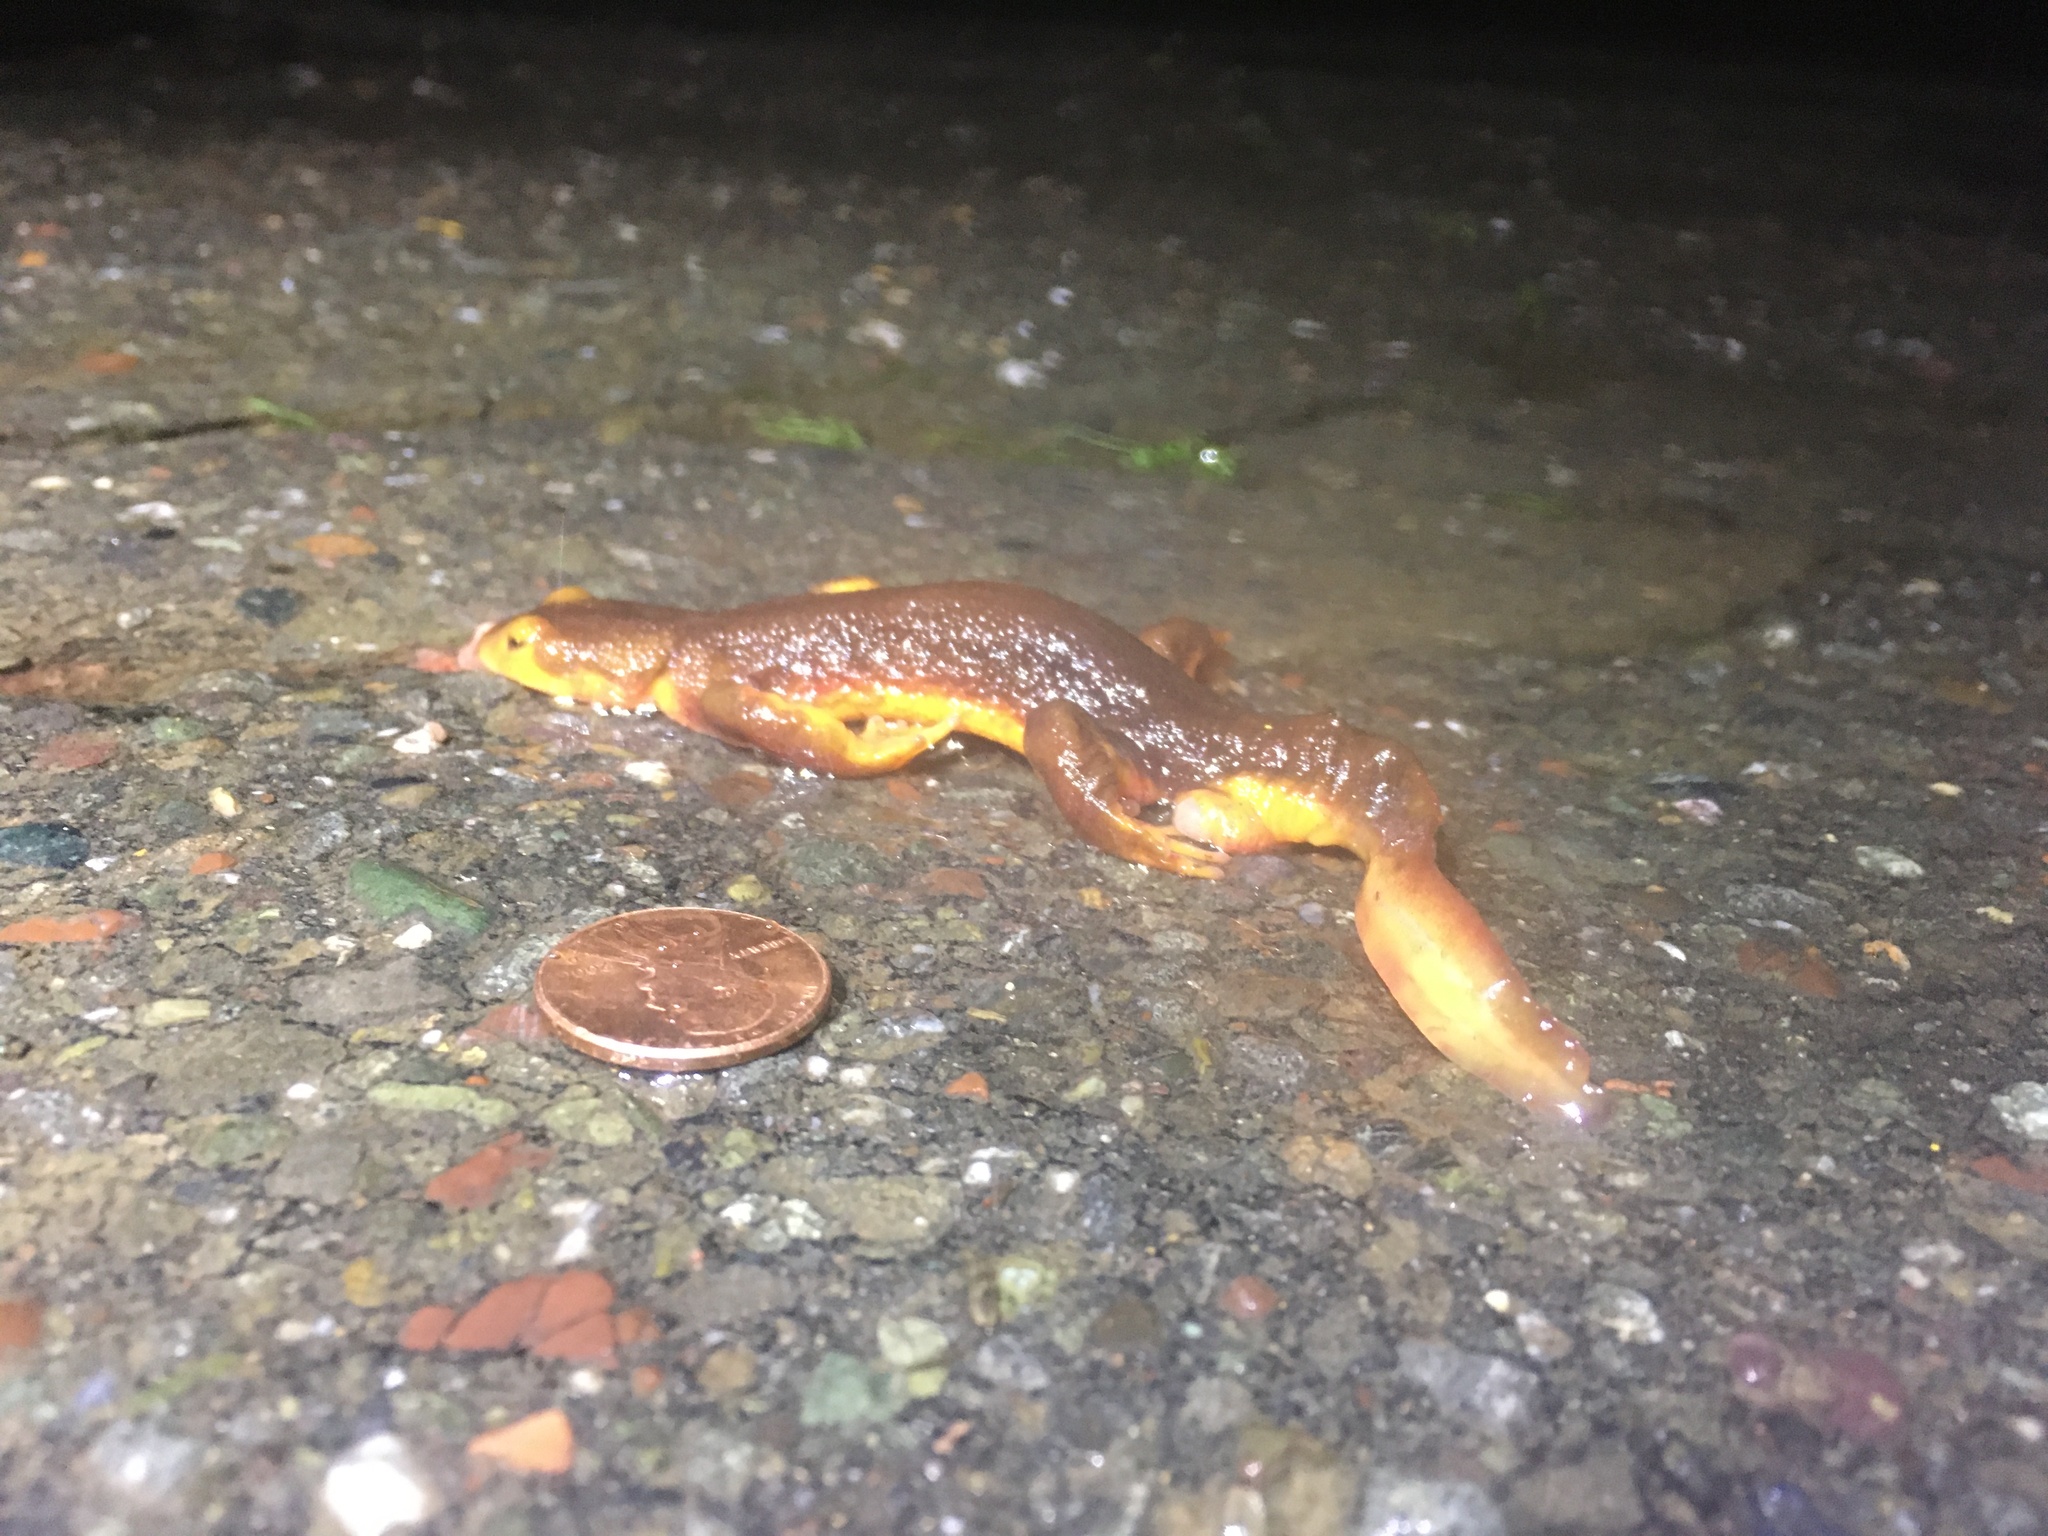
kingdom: Animalia
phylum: Chordata
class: Amphibia
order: Caudata
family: Salamandridae
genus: Taricha
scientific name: Taricha torosa
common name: California newt
